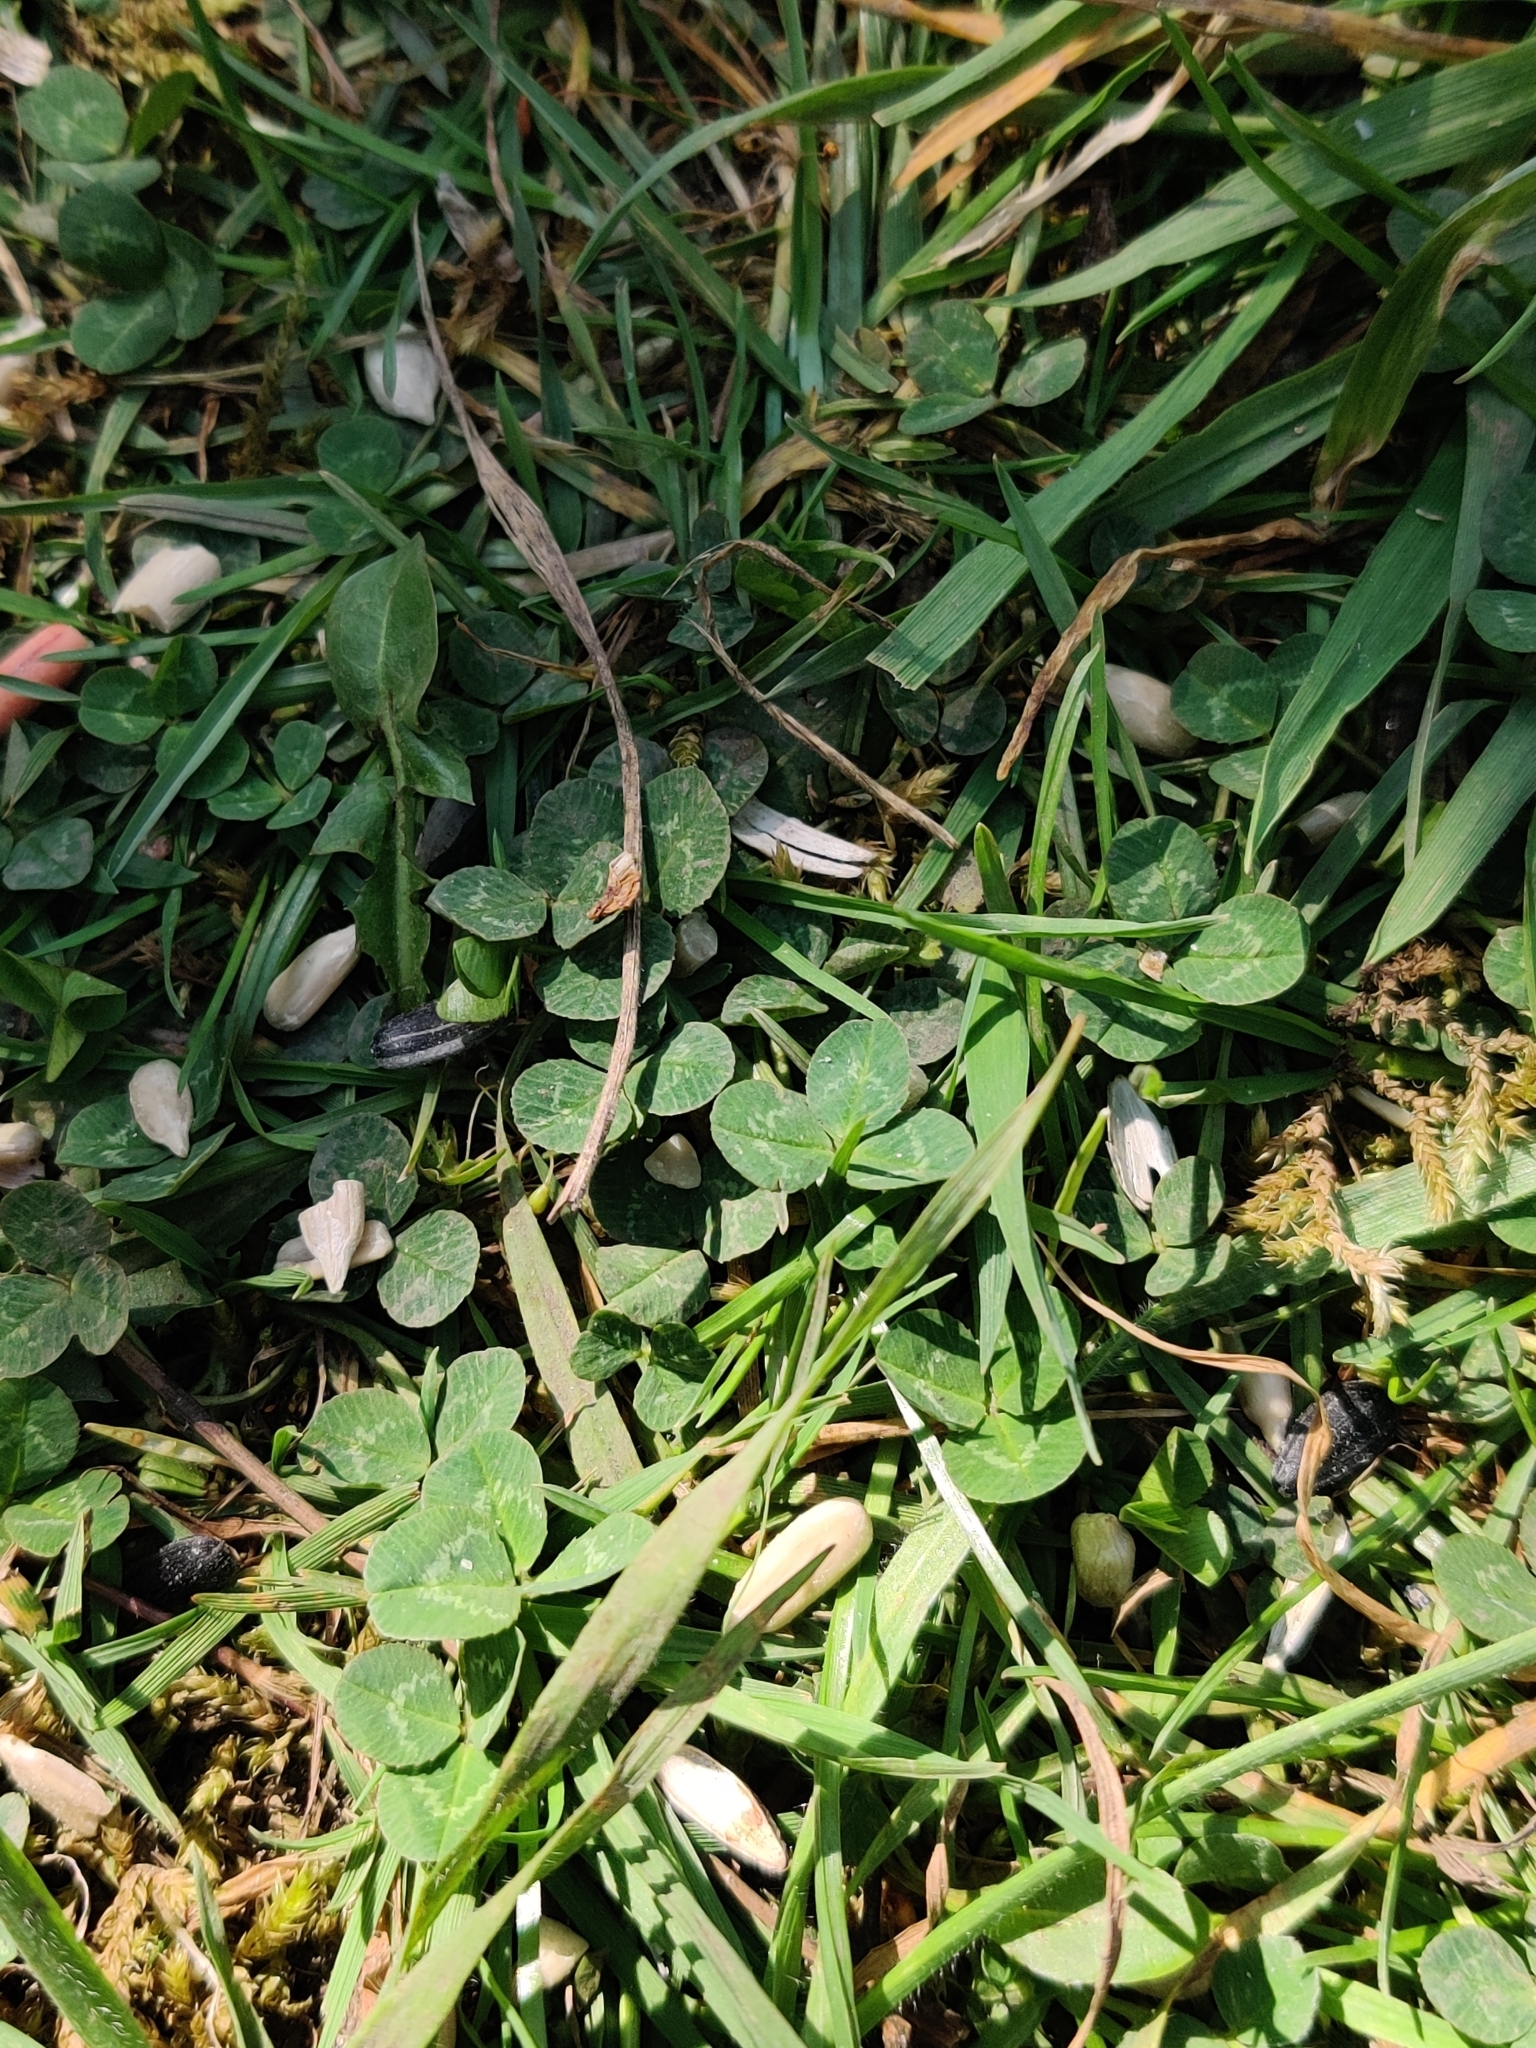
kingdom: Plantae
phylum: Tracheophyta
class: Magnoliopsida
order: Fabales
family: Fabaceae
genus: Trifolium
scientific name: Trifolium repens
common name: White clover
